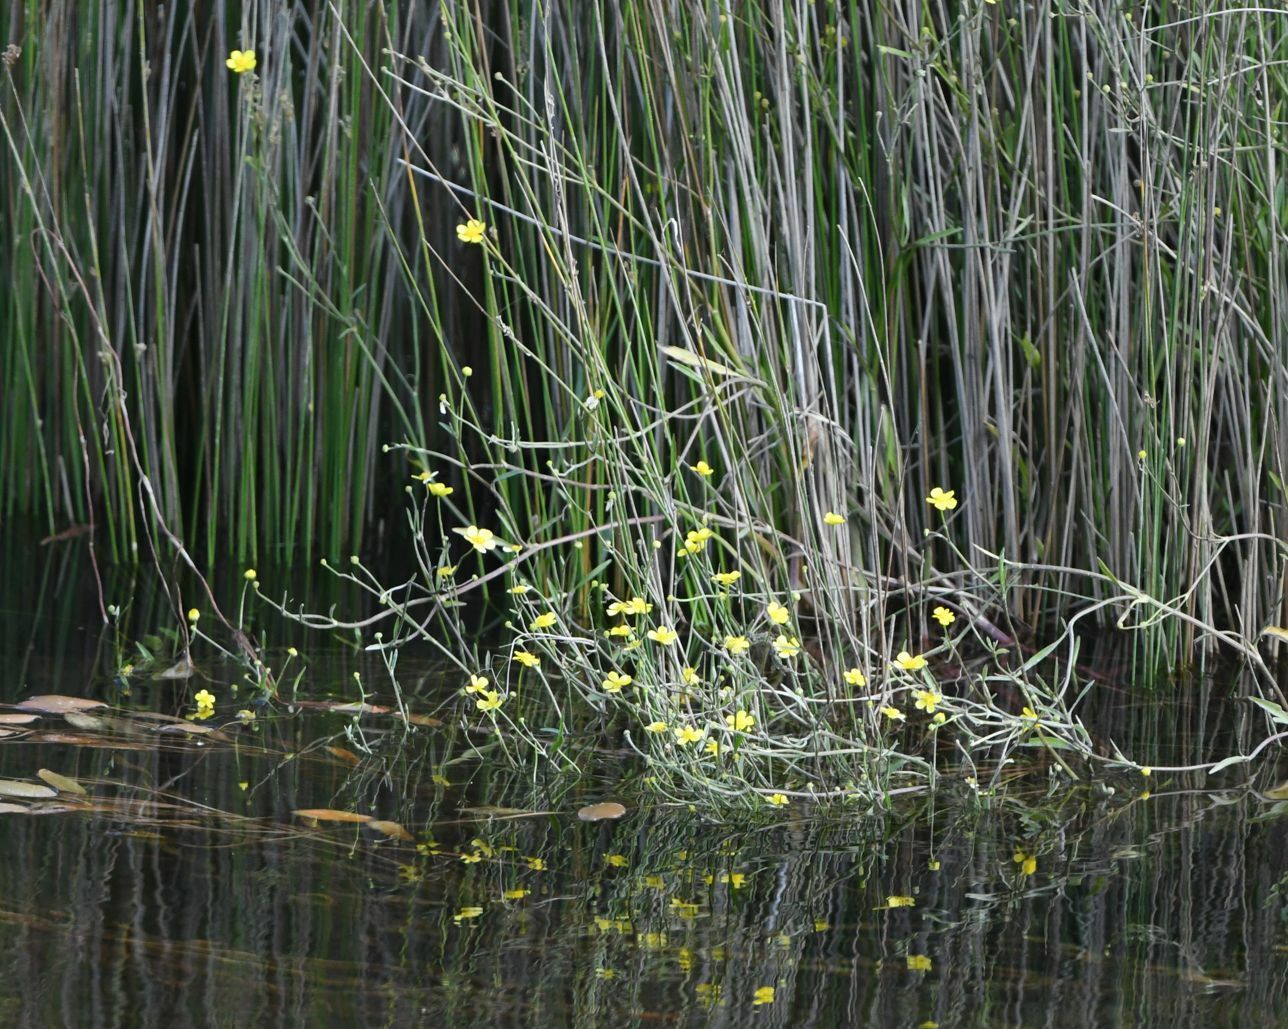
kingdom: Plantae
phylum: Tracheophyta
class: Magnoliopsida
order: Ranunculales
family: Ranunculaceae
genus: Ranunculus
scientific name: Ranunculus flammula
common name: Lesser spearwort
